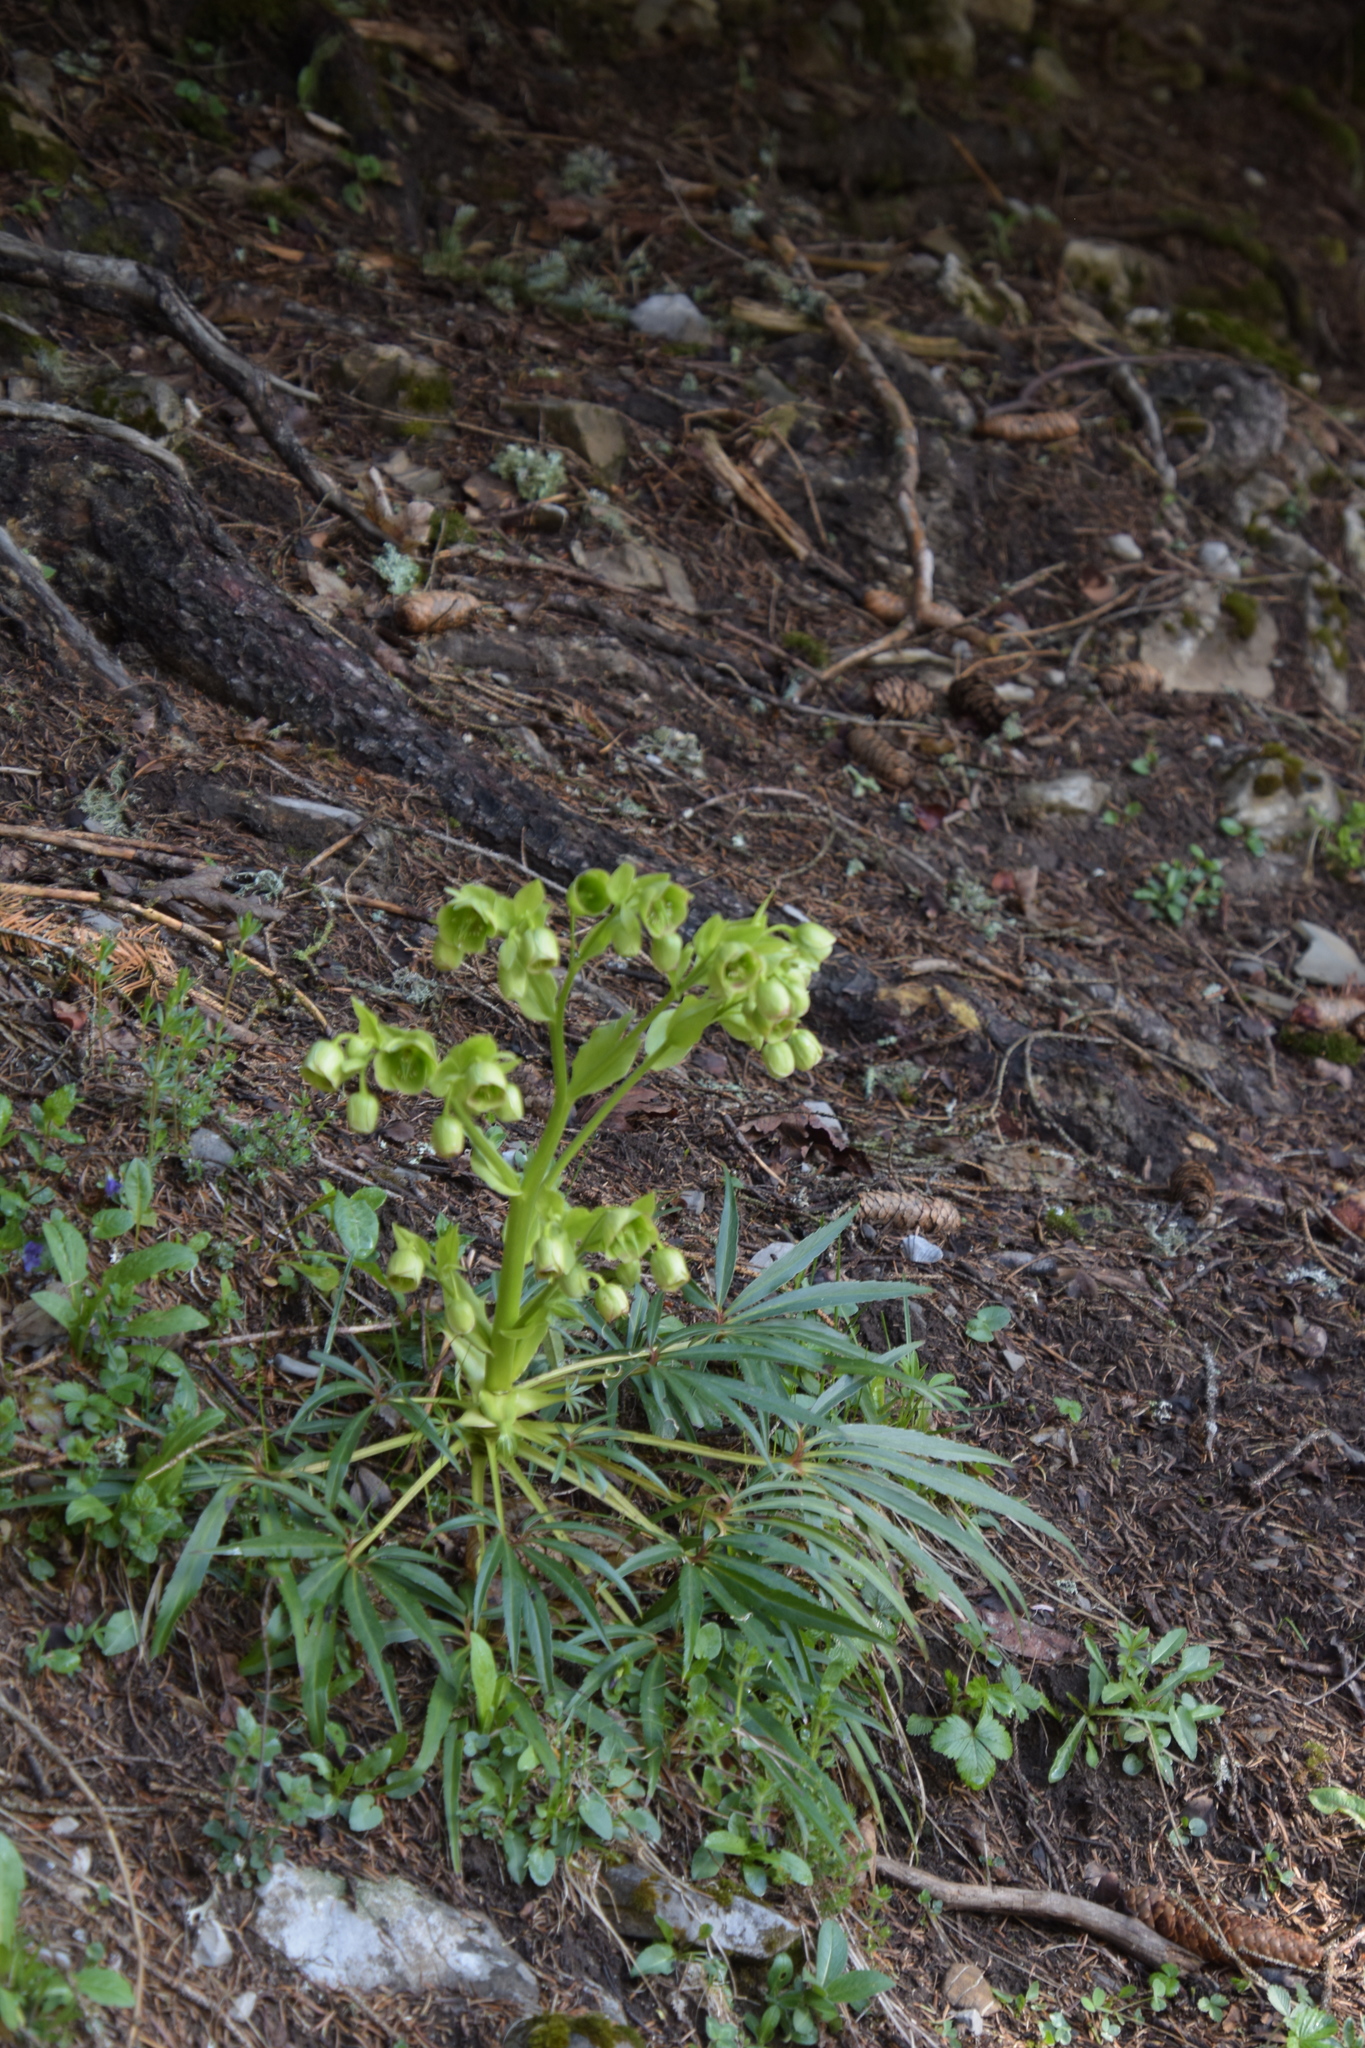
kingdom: Plantae
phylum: Tracheophyta
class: Magnoliopsida
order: Ranunculales
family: Ranunculaceae
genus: Helleborus
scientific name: Helleborus foetidus
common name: Stinking hellebore
